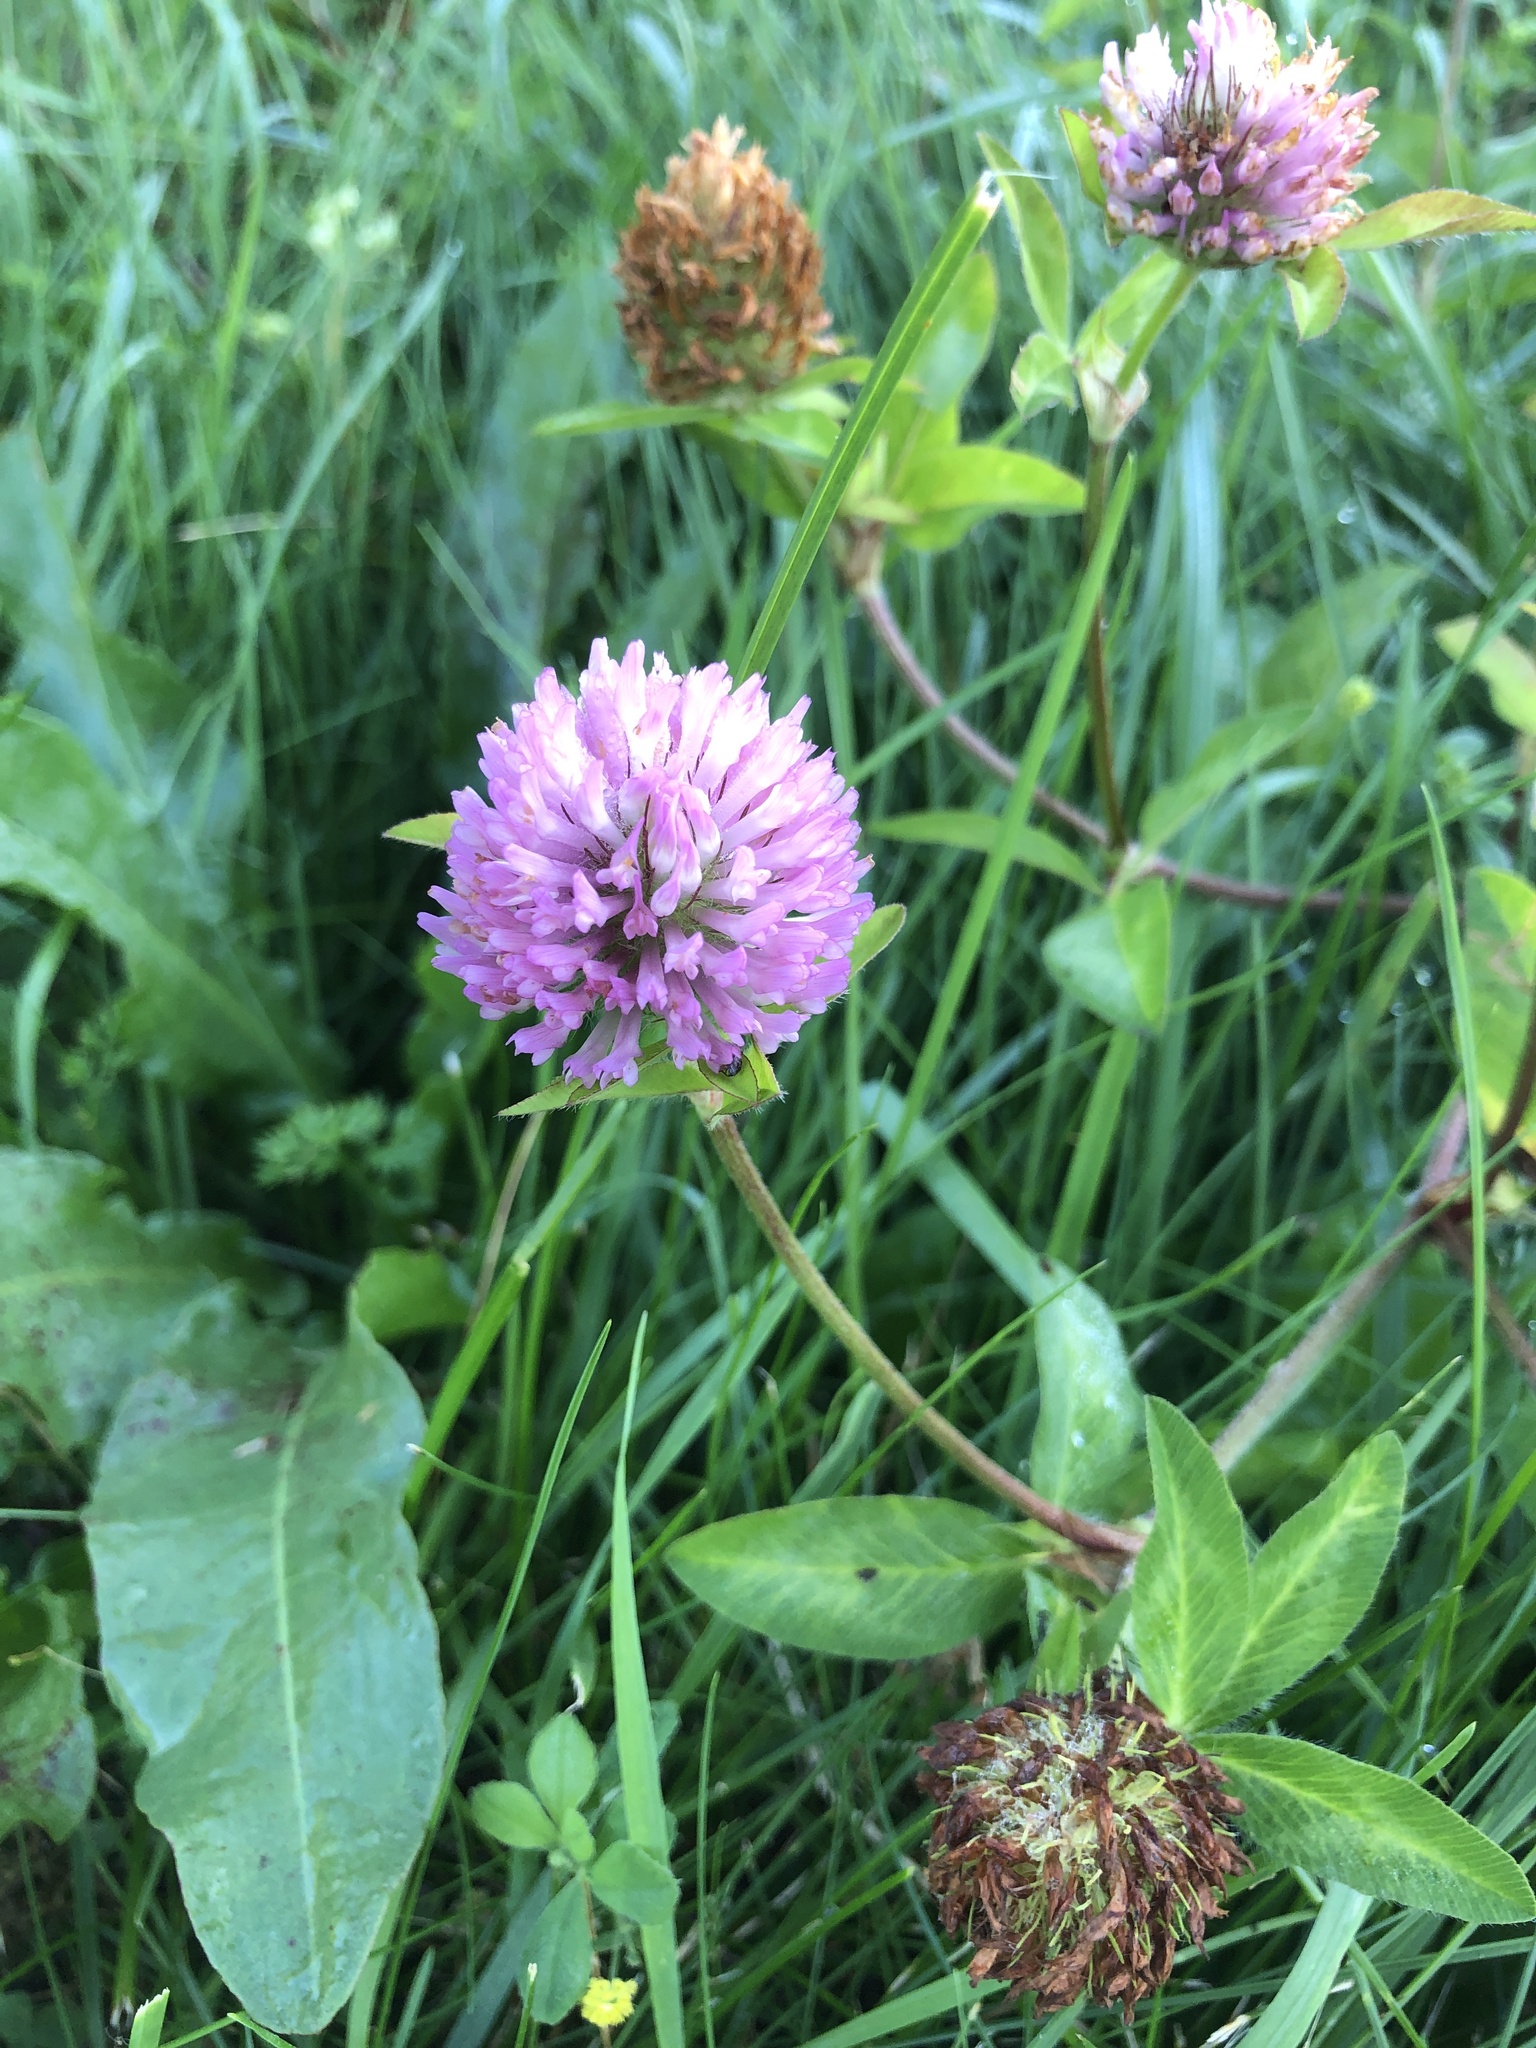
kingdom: Plantae
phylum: Tracheophyta
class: Magnoliopsida
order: Fabales
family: Fabaceae
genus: Trifolium
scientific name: Trifolium pratense
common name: Red clover
